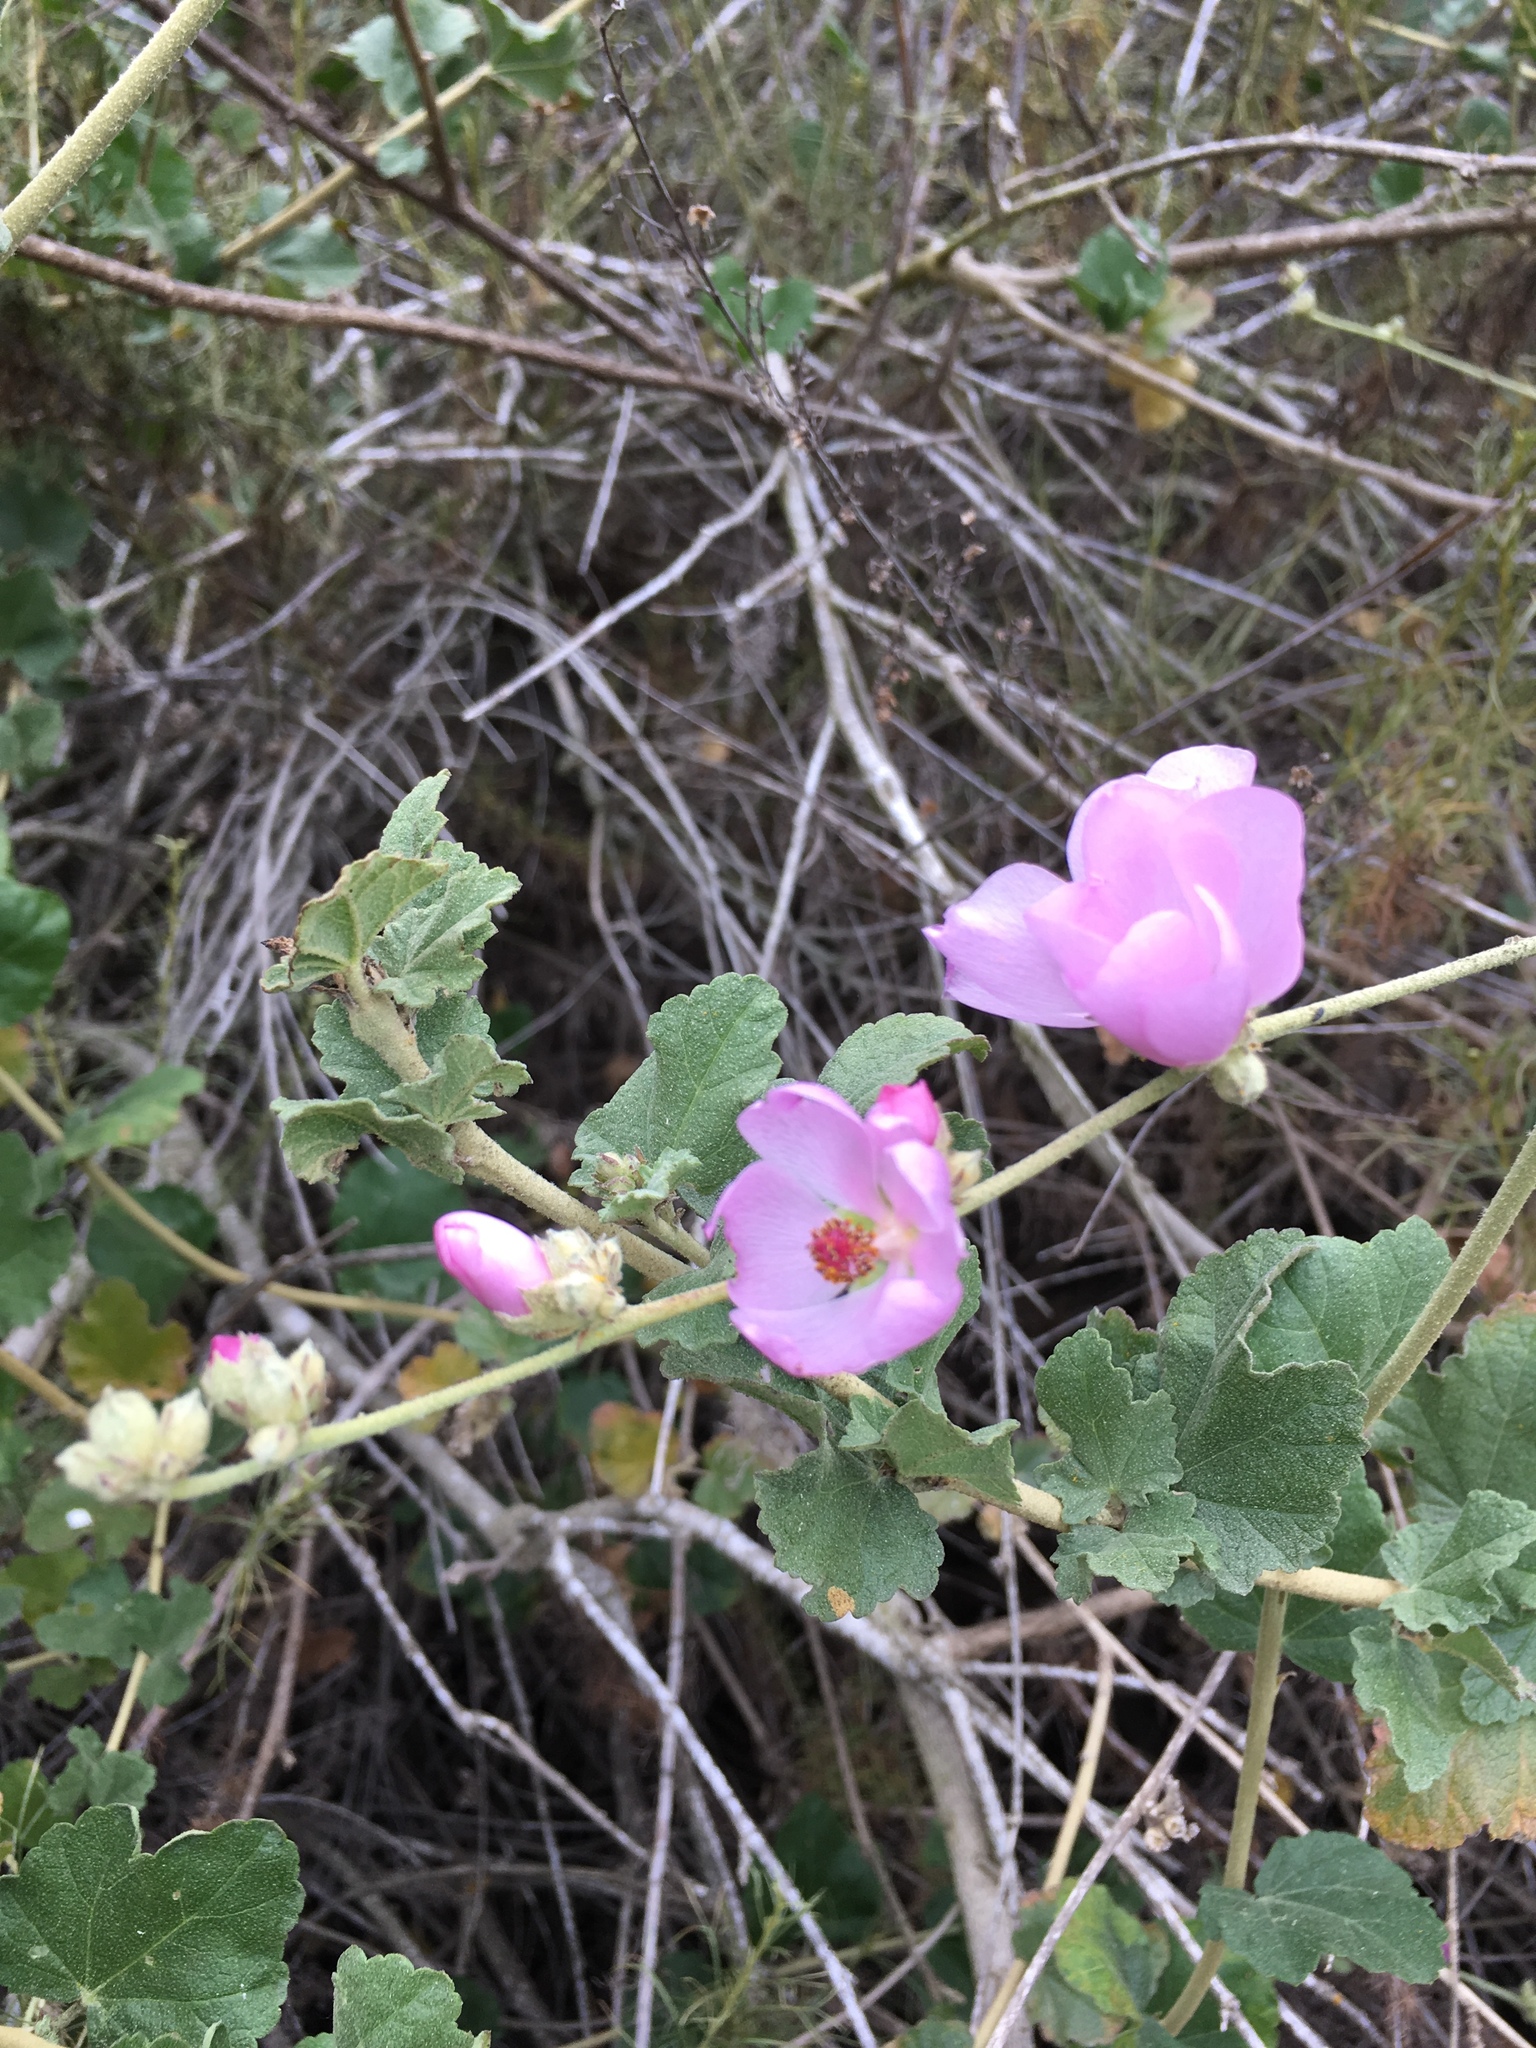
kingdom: Plantae
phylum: Tracheophyta
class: Magnoliopsida
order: Malvales
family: Malvaceae
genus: Malacothamnus
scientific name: Malacothamnus fasciculatus
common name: Sant cruz island bush-mallow
